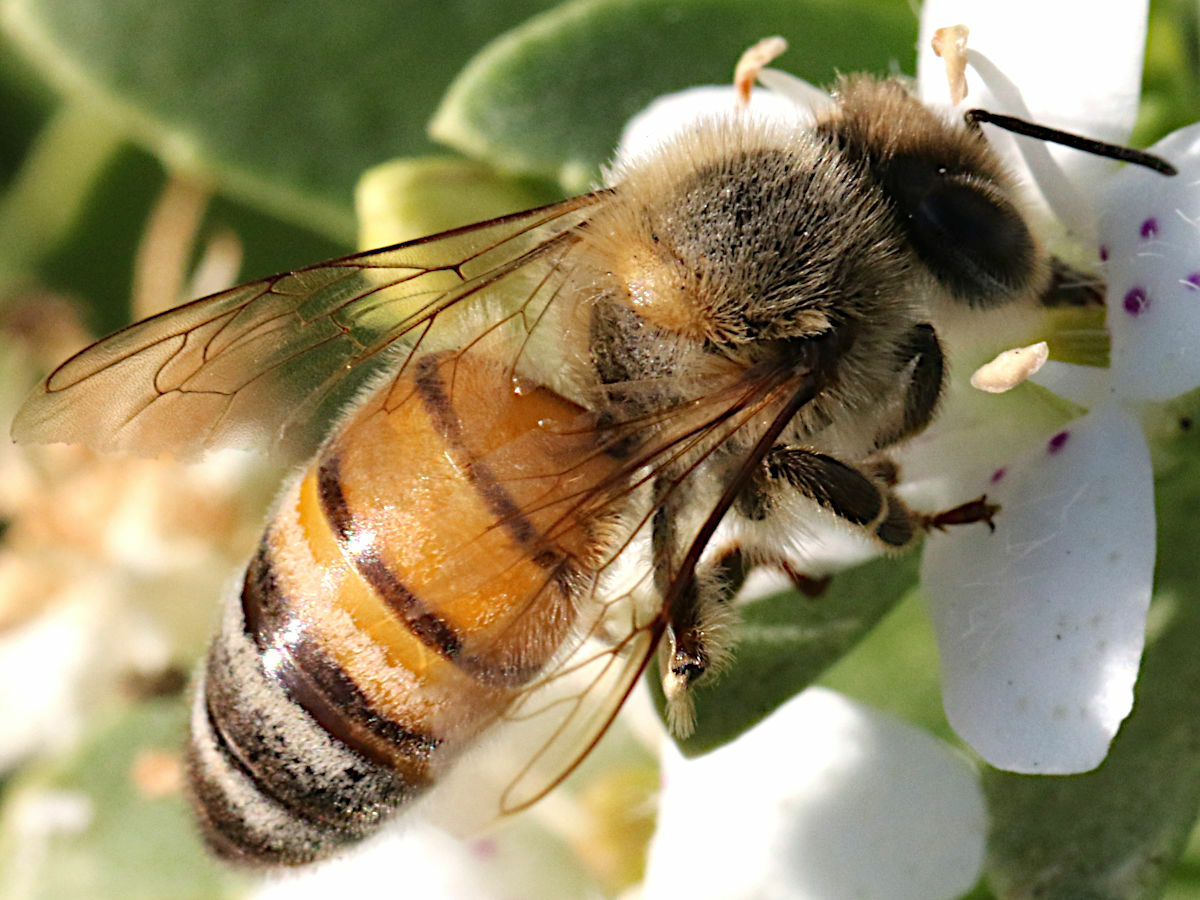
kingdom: Animalia
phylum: Arthropoda
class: Insecta
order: Hymenoptera
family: Apidae
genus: Apis
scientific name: Apis mellifera
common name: Honey bee
